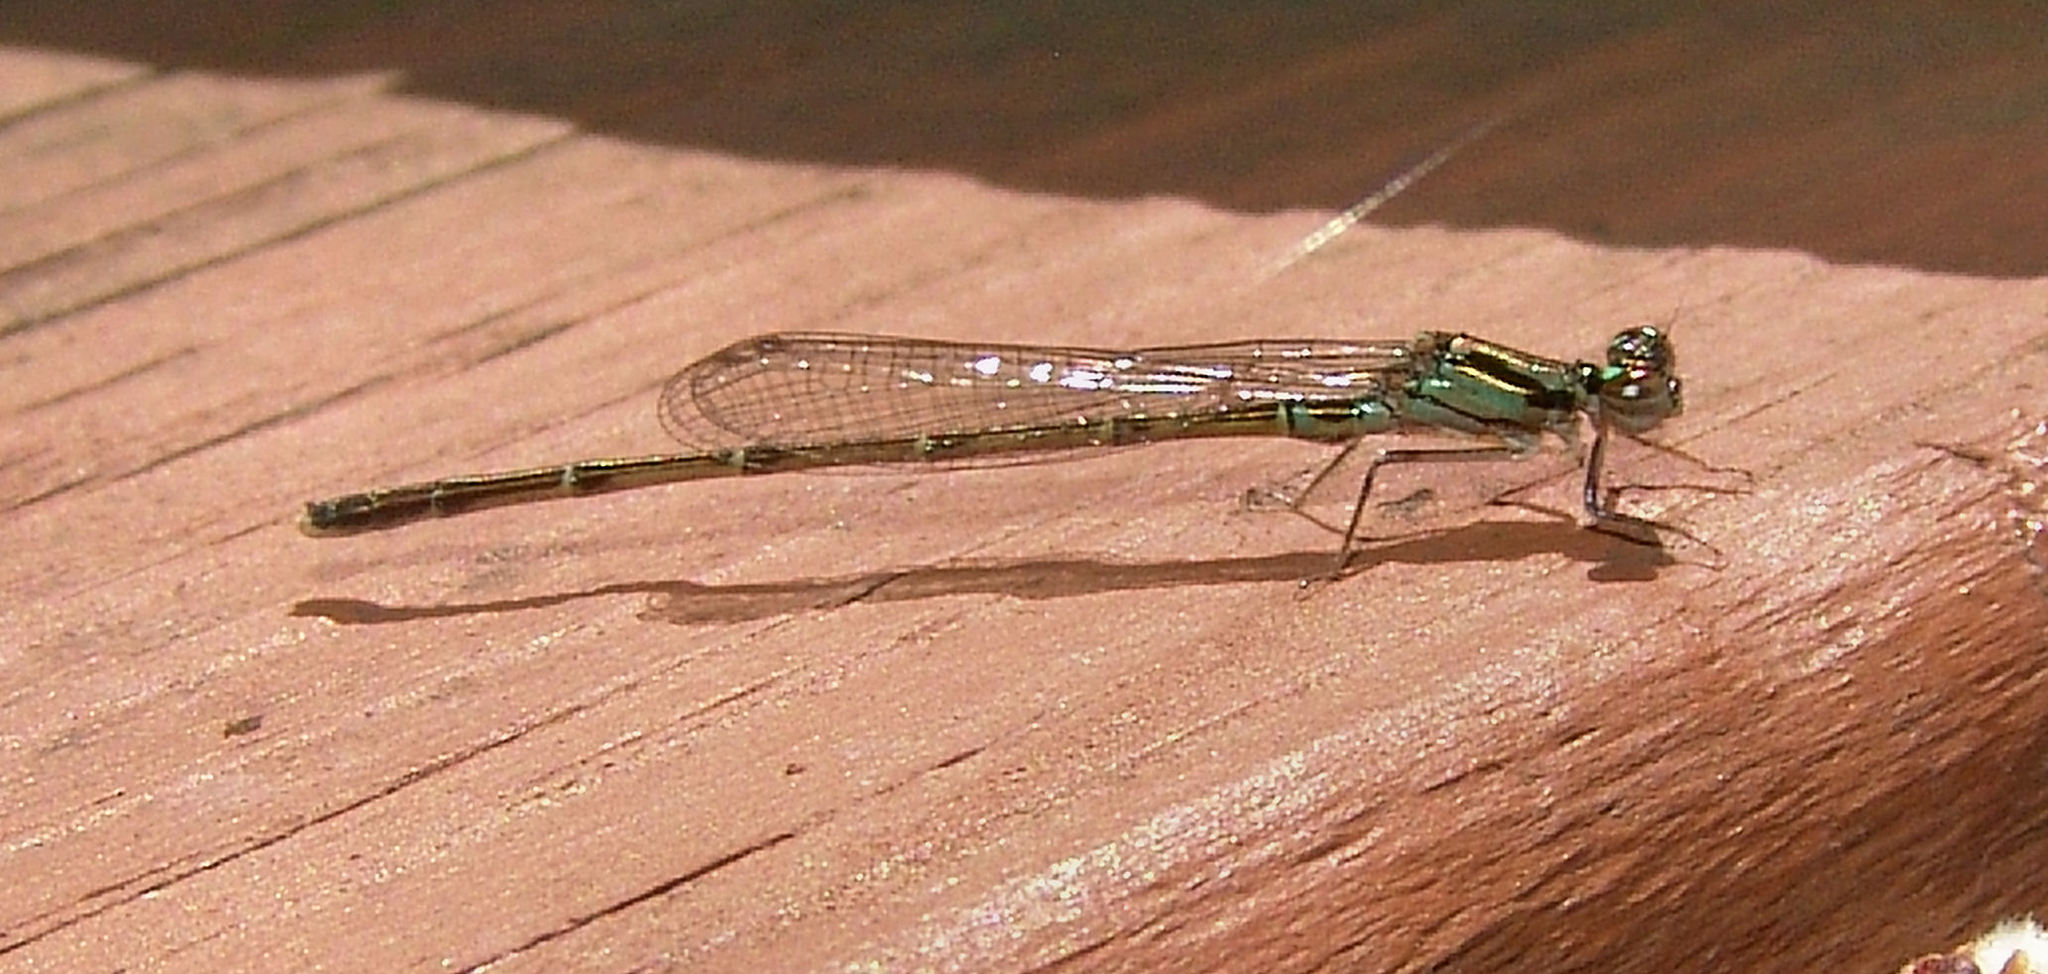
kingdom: Animalia
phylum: Arthropoda
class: Insecta
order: Odonata
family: Coenagrionidae
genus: Ischnura
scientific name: Ischnura posita
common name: Fragile forktail
